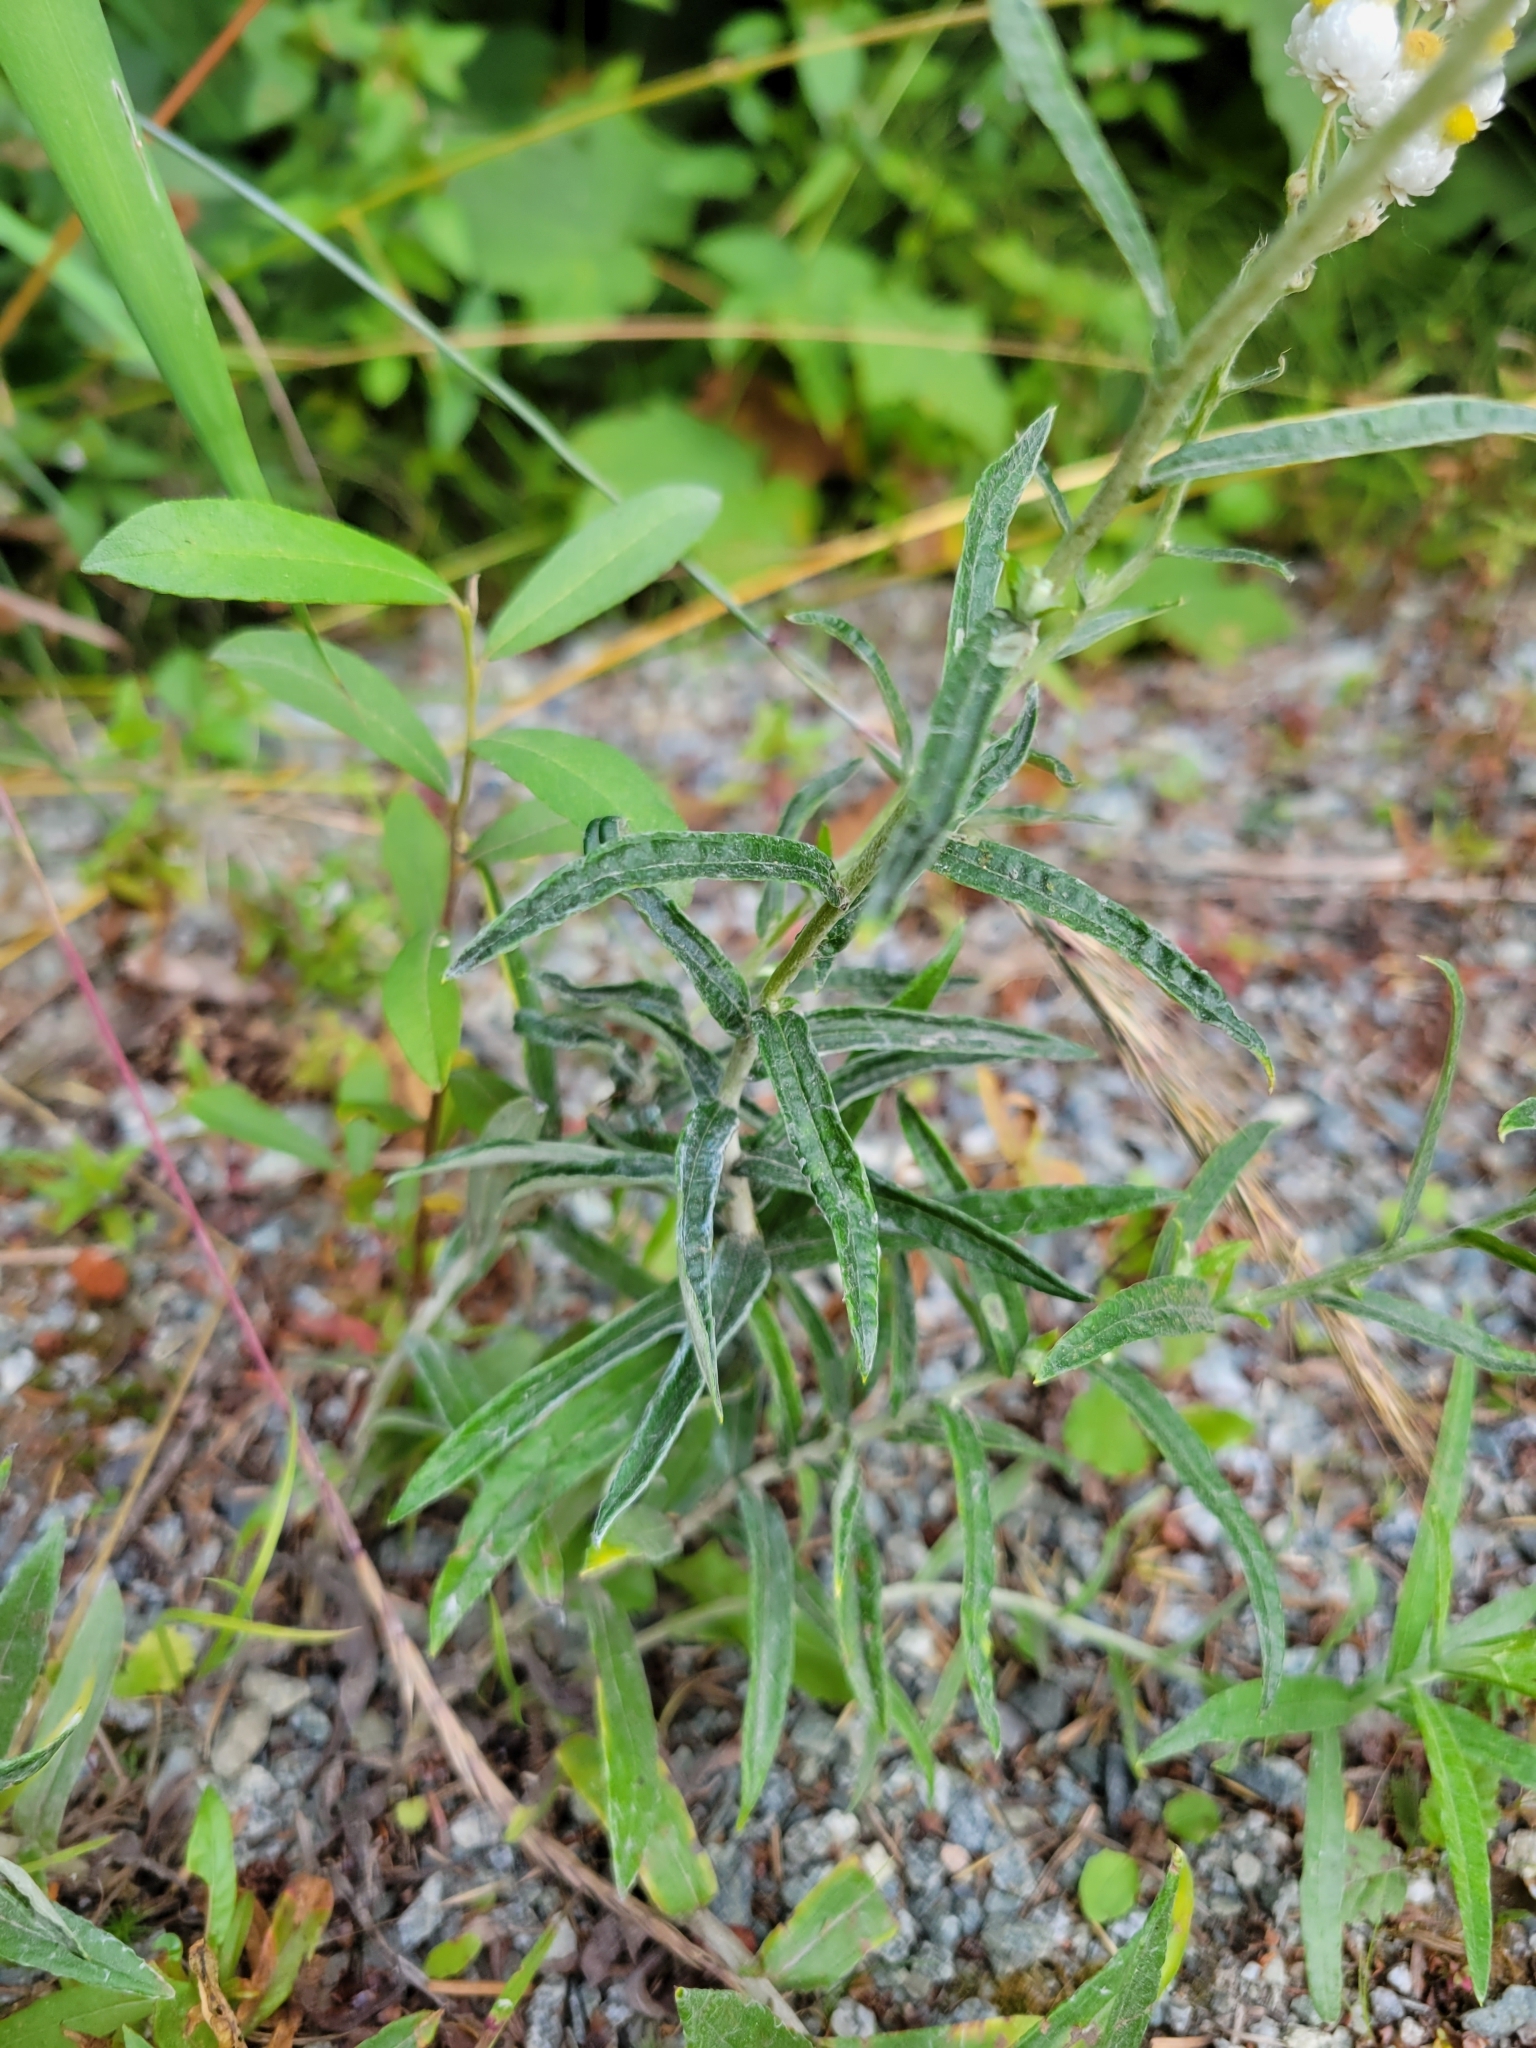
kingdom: Plantae
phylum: Tracheophyta
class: Magnoliopsida
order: Asterales
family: Asteraceae
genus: Anaphalis
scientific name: Anaphalis margaritacea
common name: Pearly everlasting
